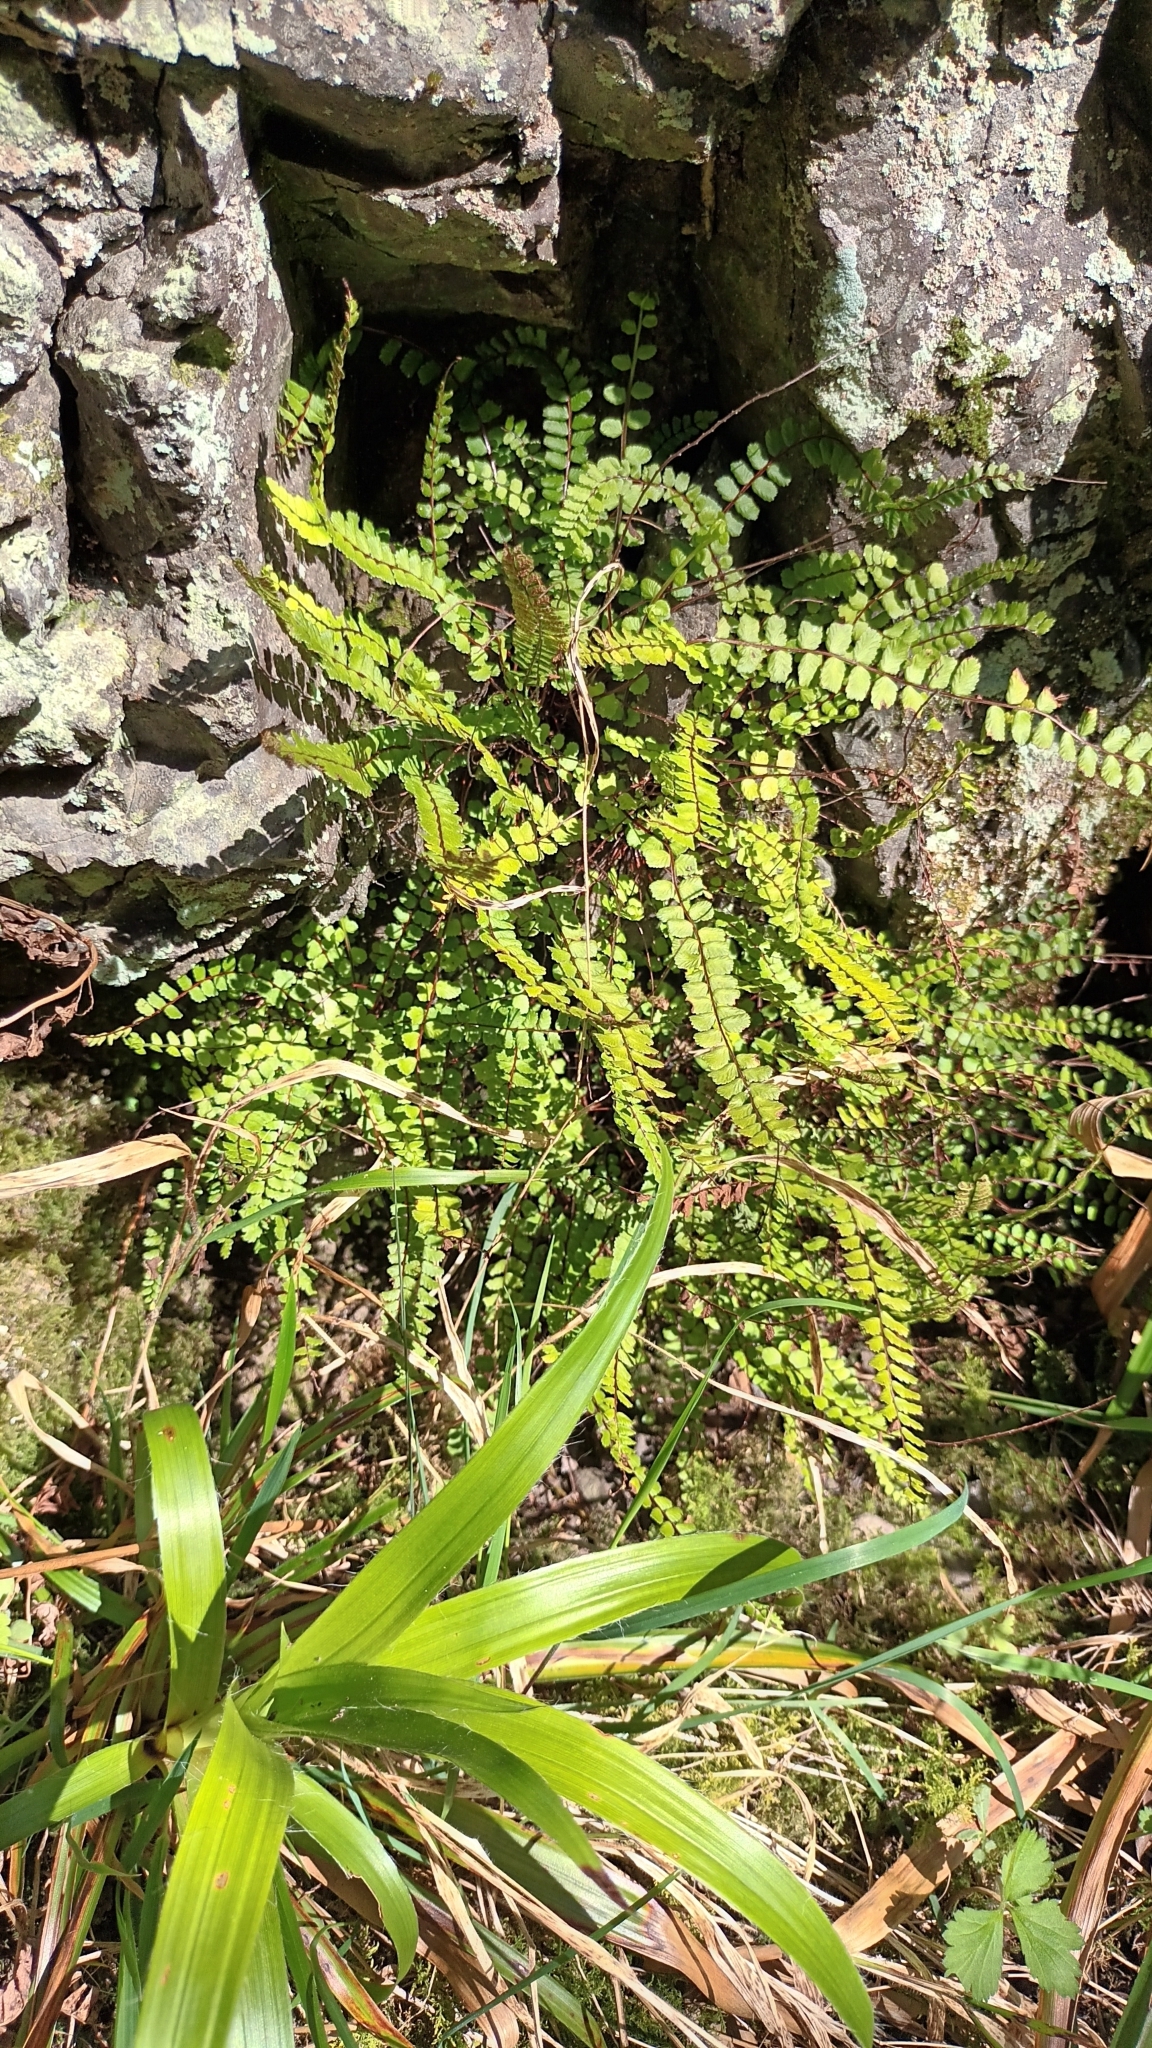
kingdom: Plantae
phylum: Tracheophyta
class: Polypodiopsida
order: Polypodiales
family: Aspleniaceae
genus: Asplenium
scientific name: Asplenium trichomanes
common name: Maidenhair spleenwort
